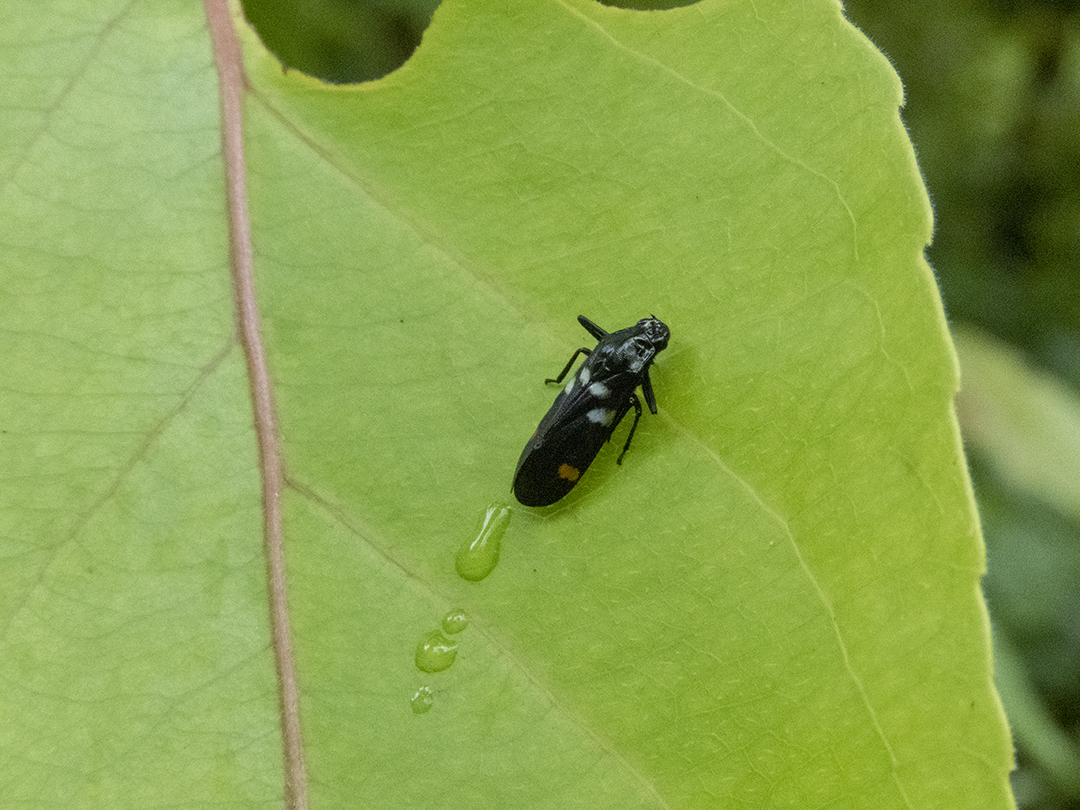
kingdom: Animalia
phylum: Arthropoda
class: Insecta
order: Hemiptera
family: Cercopidae
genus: Callitettix
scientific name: Callitettix versicolor
